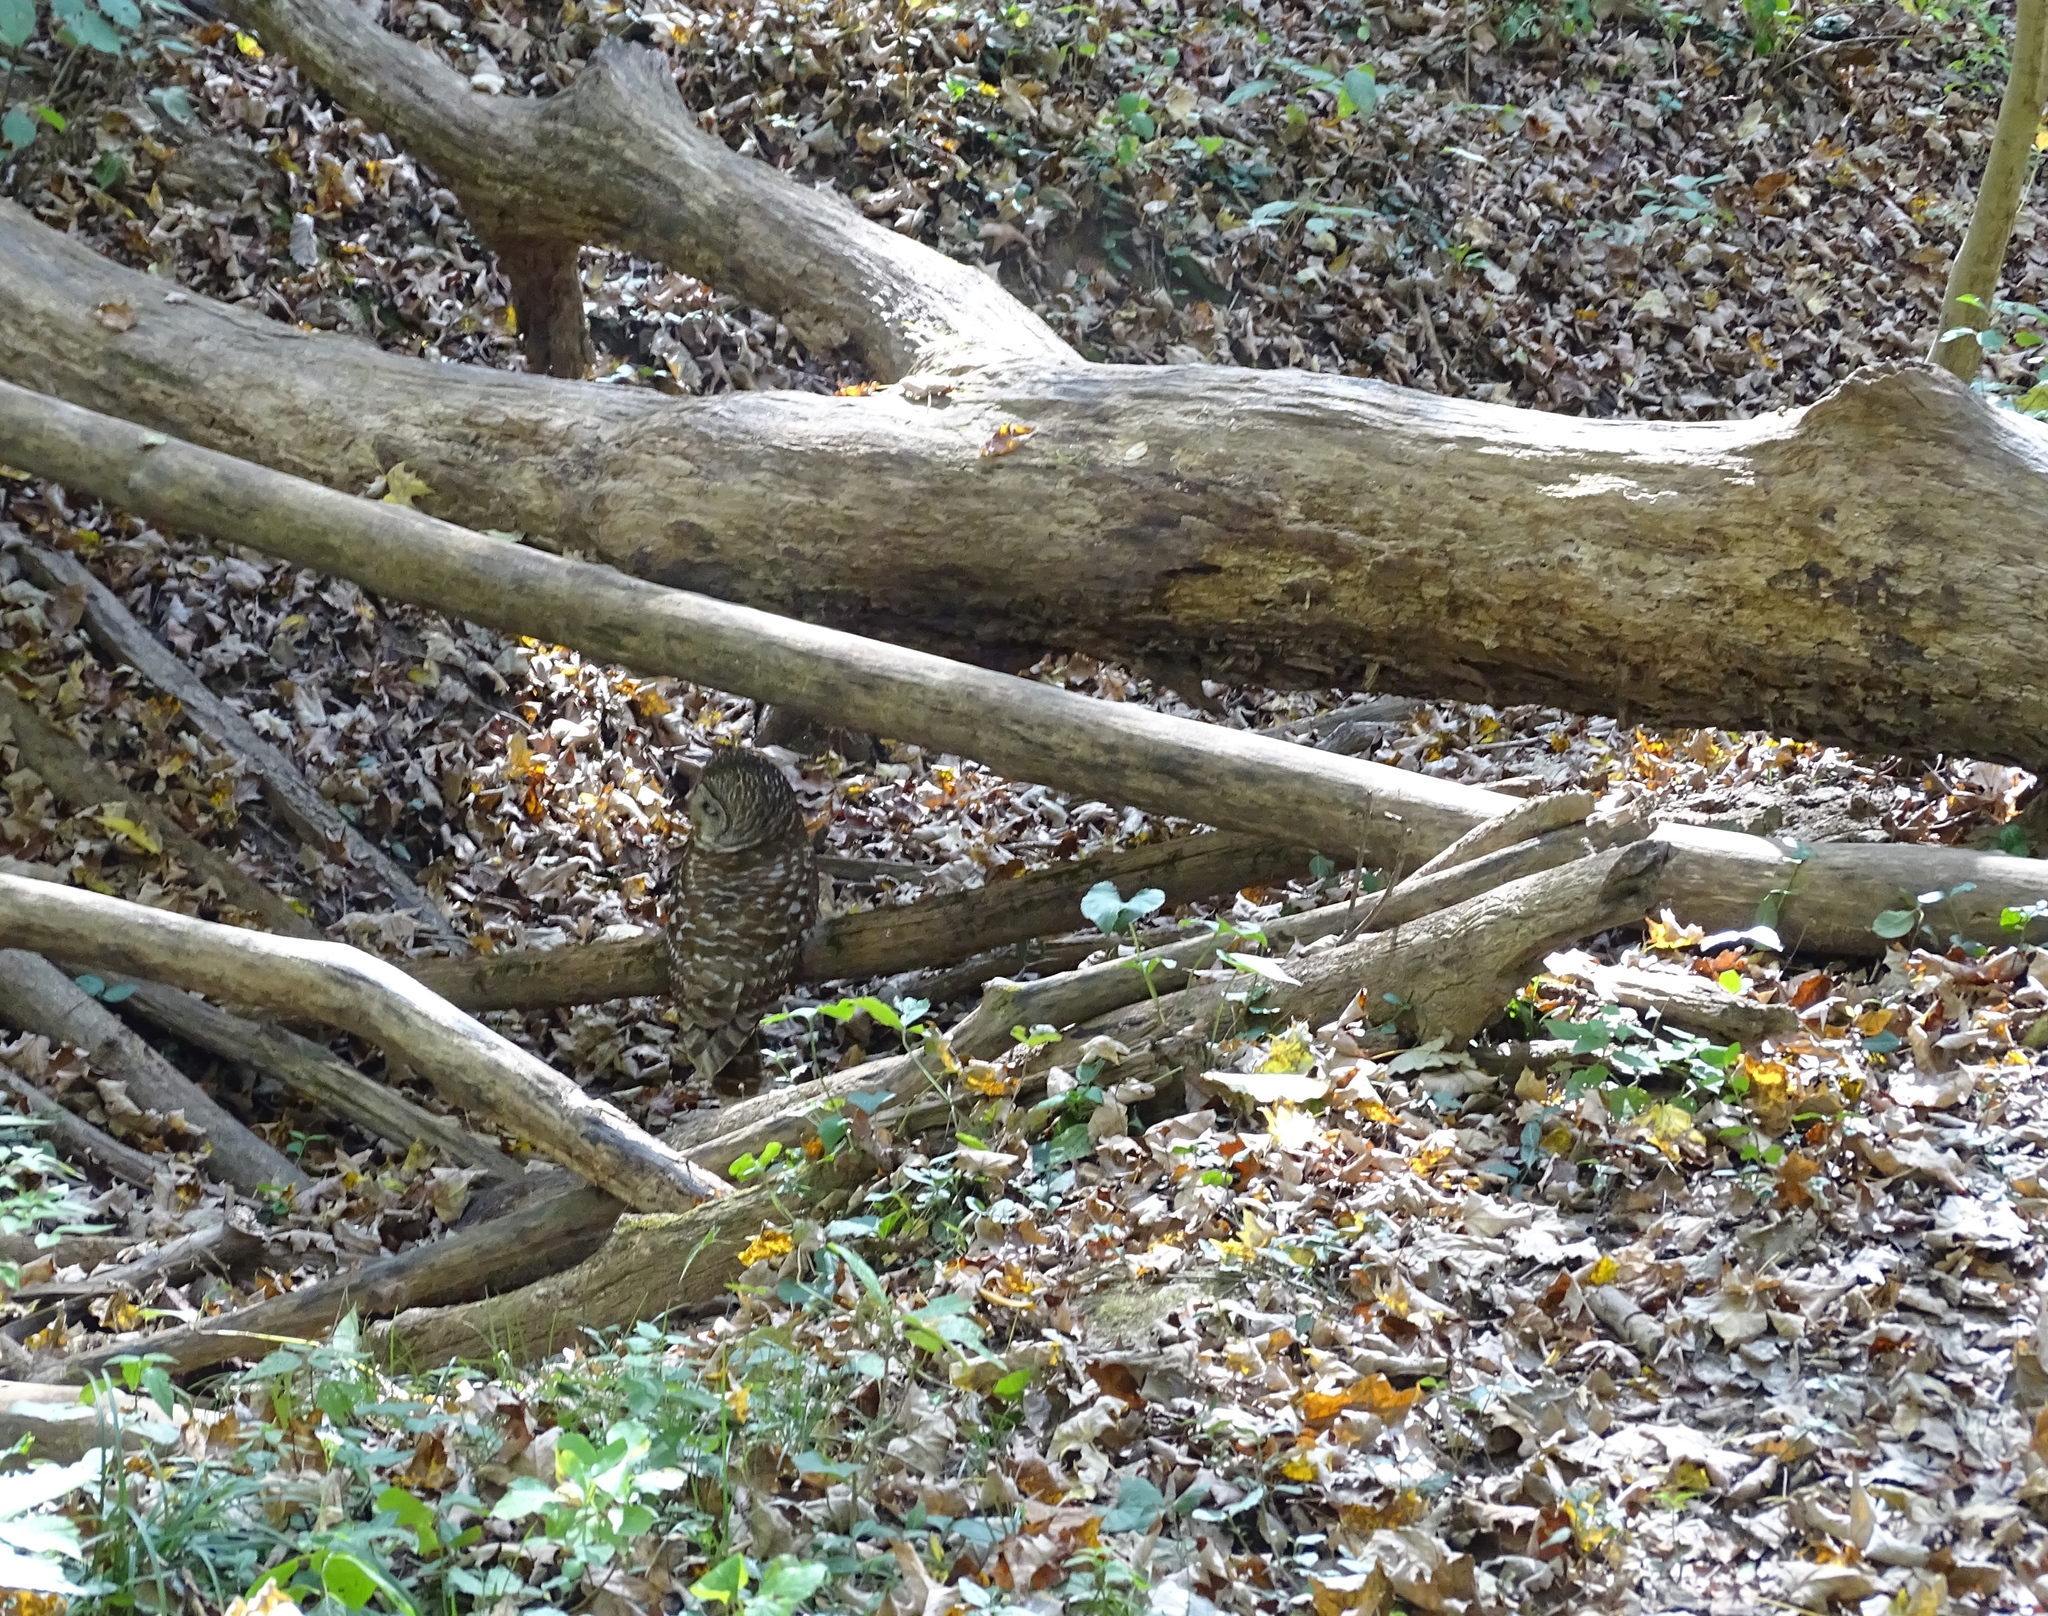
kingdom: Animalia
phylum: Chordata
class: Aves
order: Strigiformes
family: Strigidae
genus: Strix
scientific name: Strix varia
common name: Barred owl
